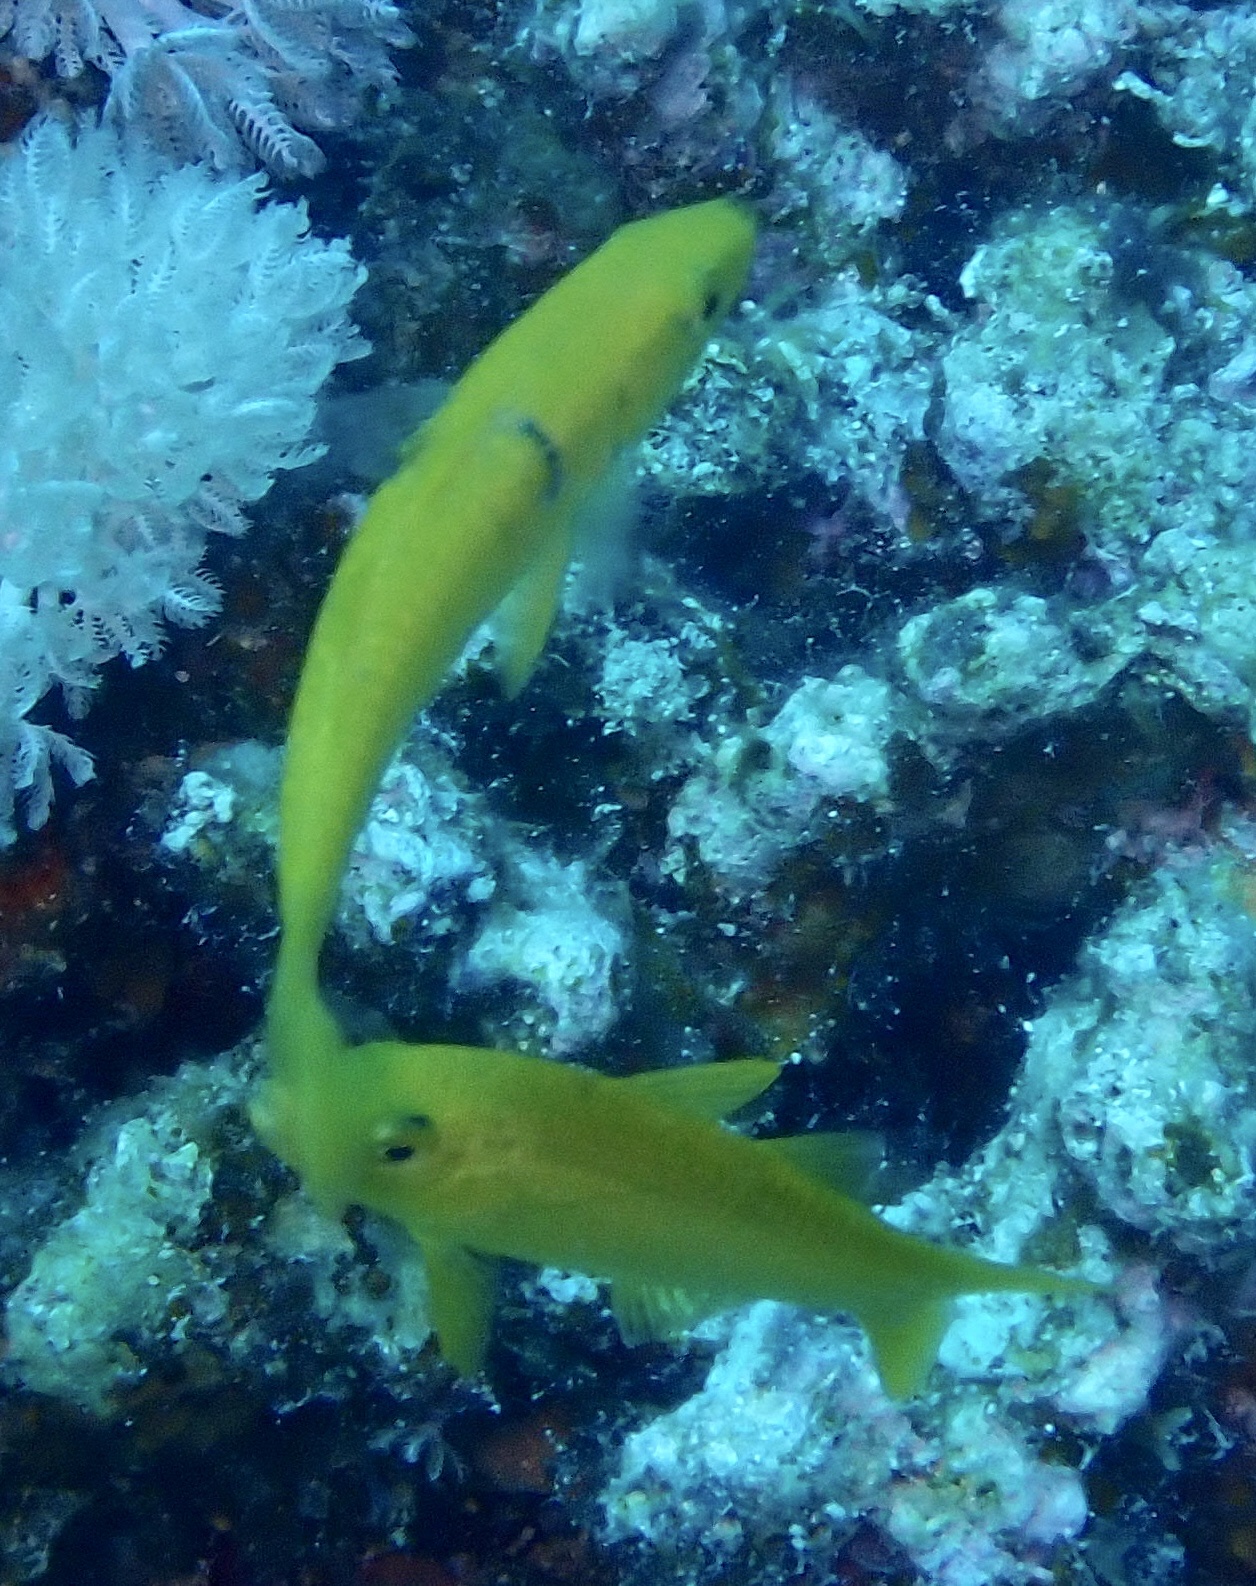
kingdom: Animalia
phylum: Chordata
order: Perciformes
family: Mullidae
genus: Parupeneus
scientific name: Parupeneus cyclostomus
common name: Goldsaddle goatfish
